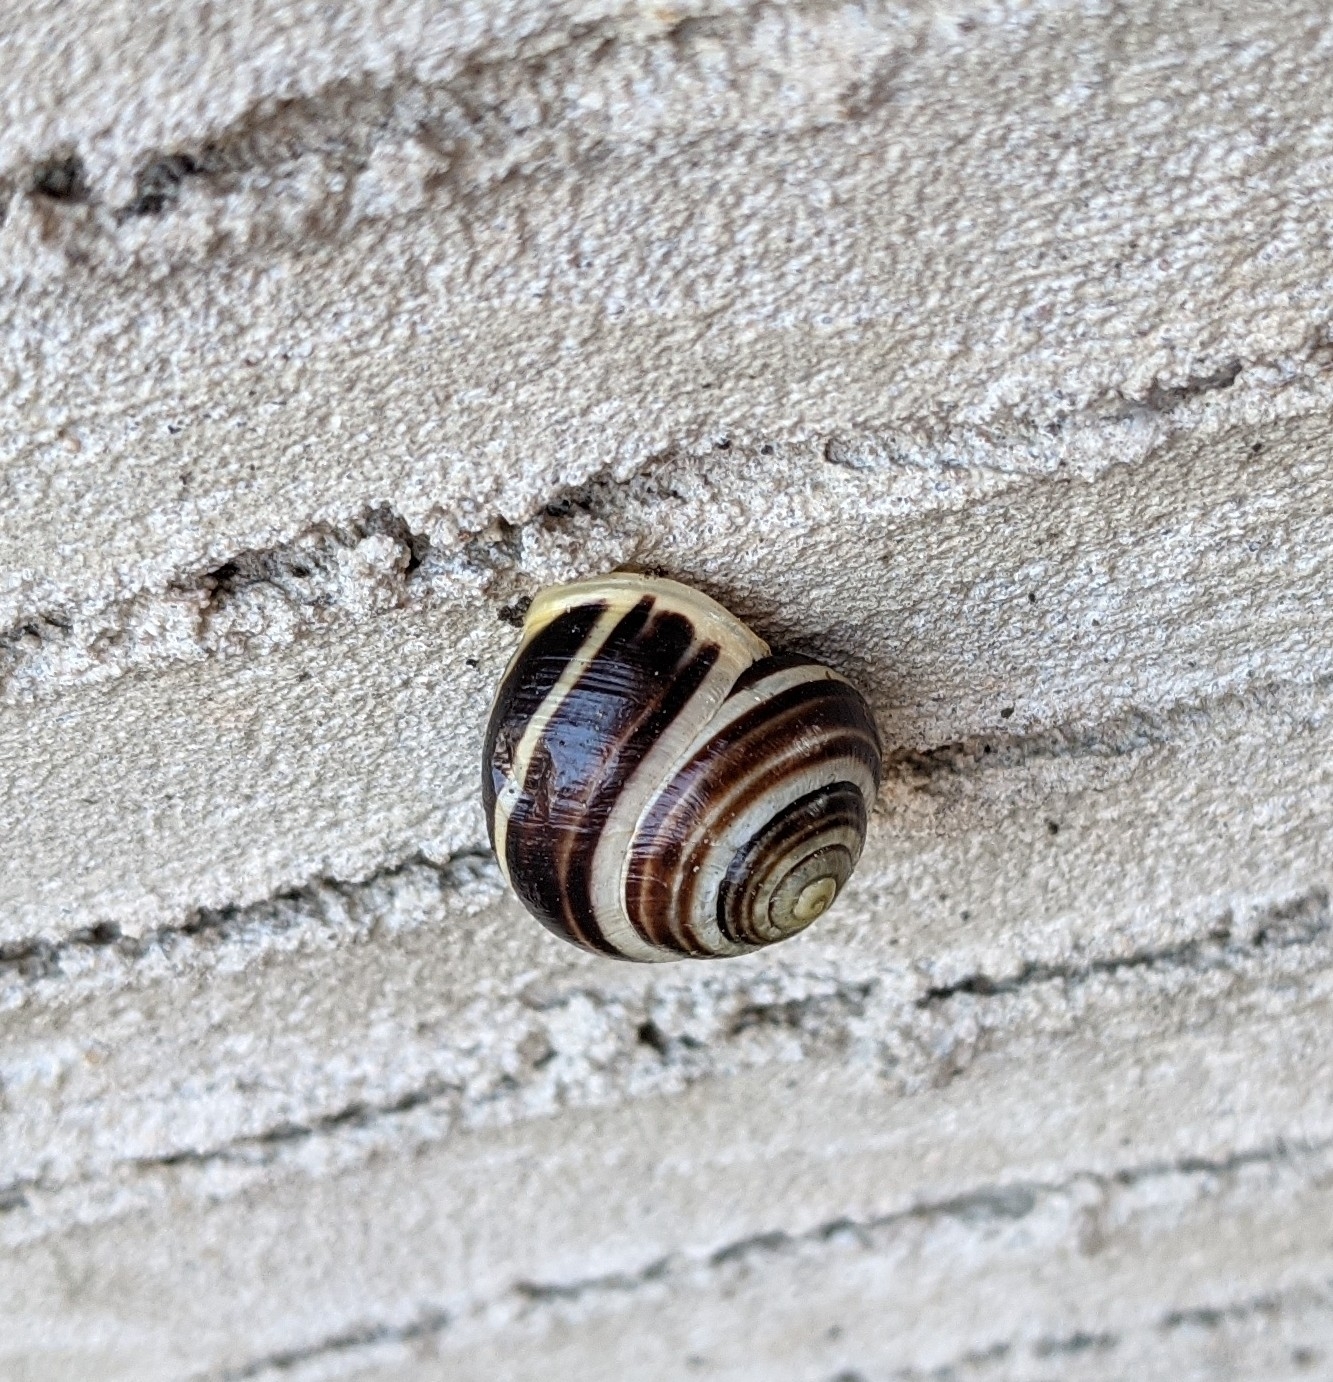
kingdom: Animalia
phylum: Mollusca
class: Gastropoda
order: Stylommatophora
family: Helicidae
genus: Cepaea
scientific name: Cepaea hortensis
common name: White-lip gardensnail
